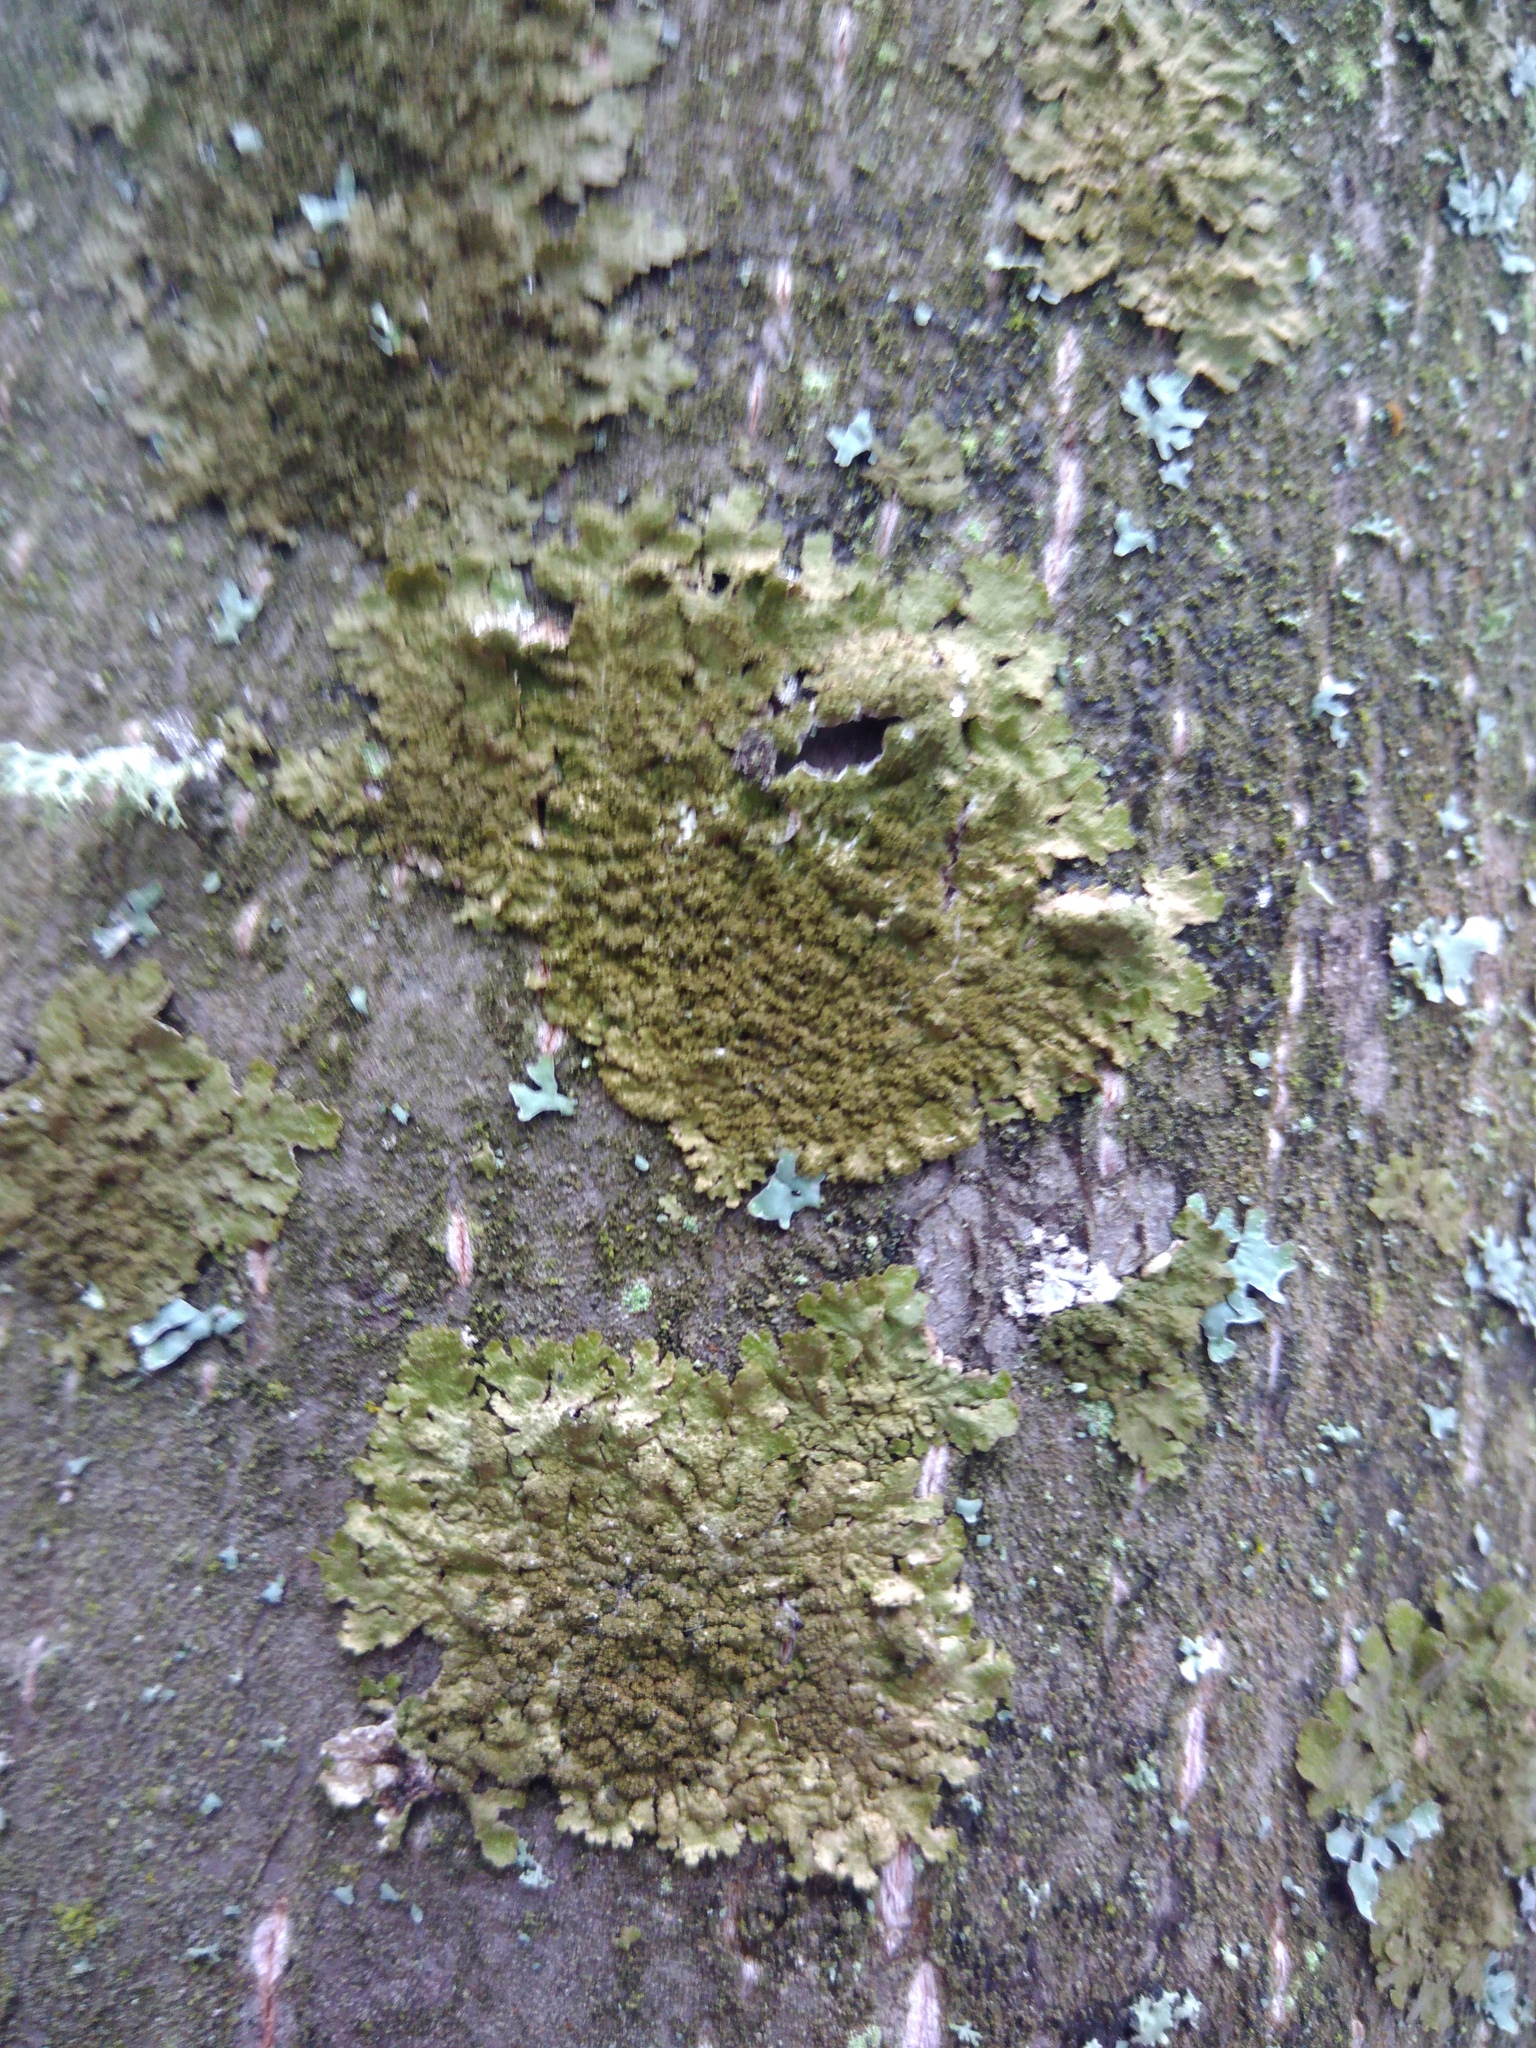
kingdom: Fungi
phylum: Ascomycota
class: Lecanoromycetes
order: Lecanorales
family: Parmeliaceae
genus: Melanelixia
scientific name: Melanelixia subaurifera
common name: Abraded camouflage lichen
